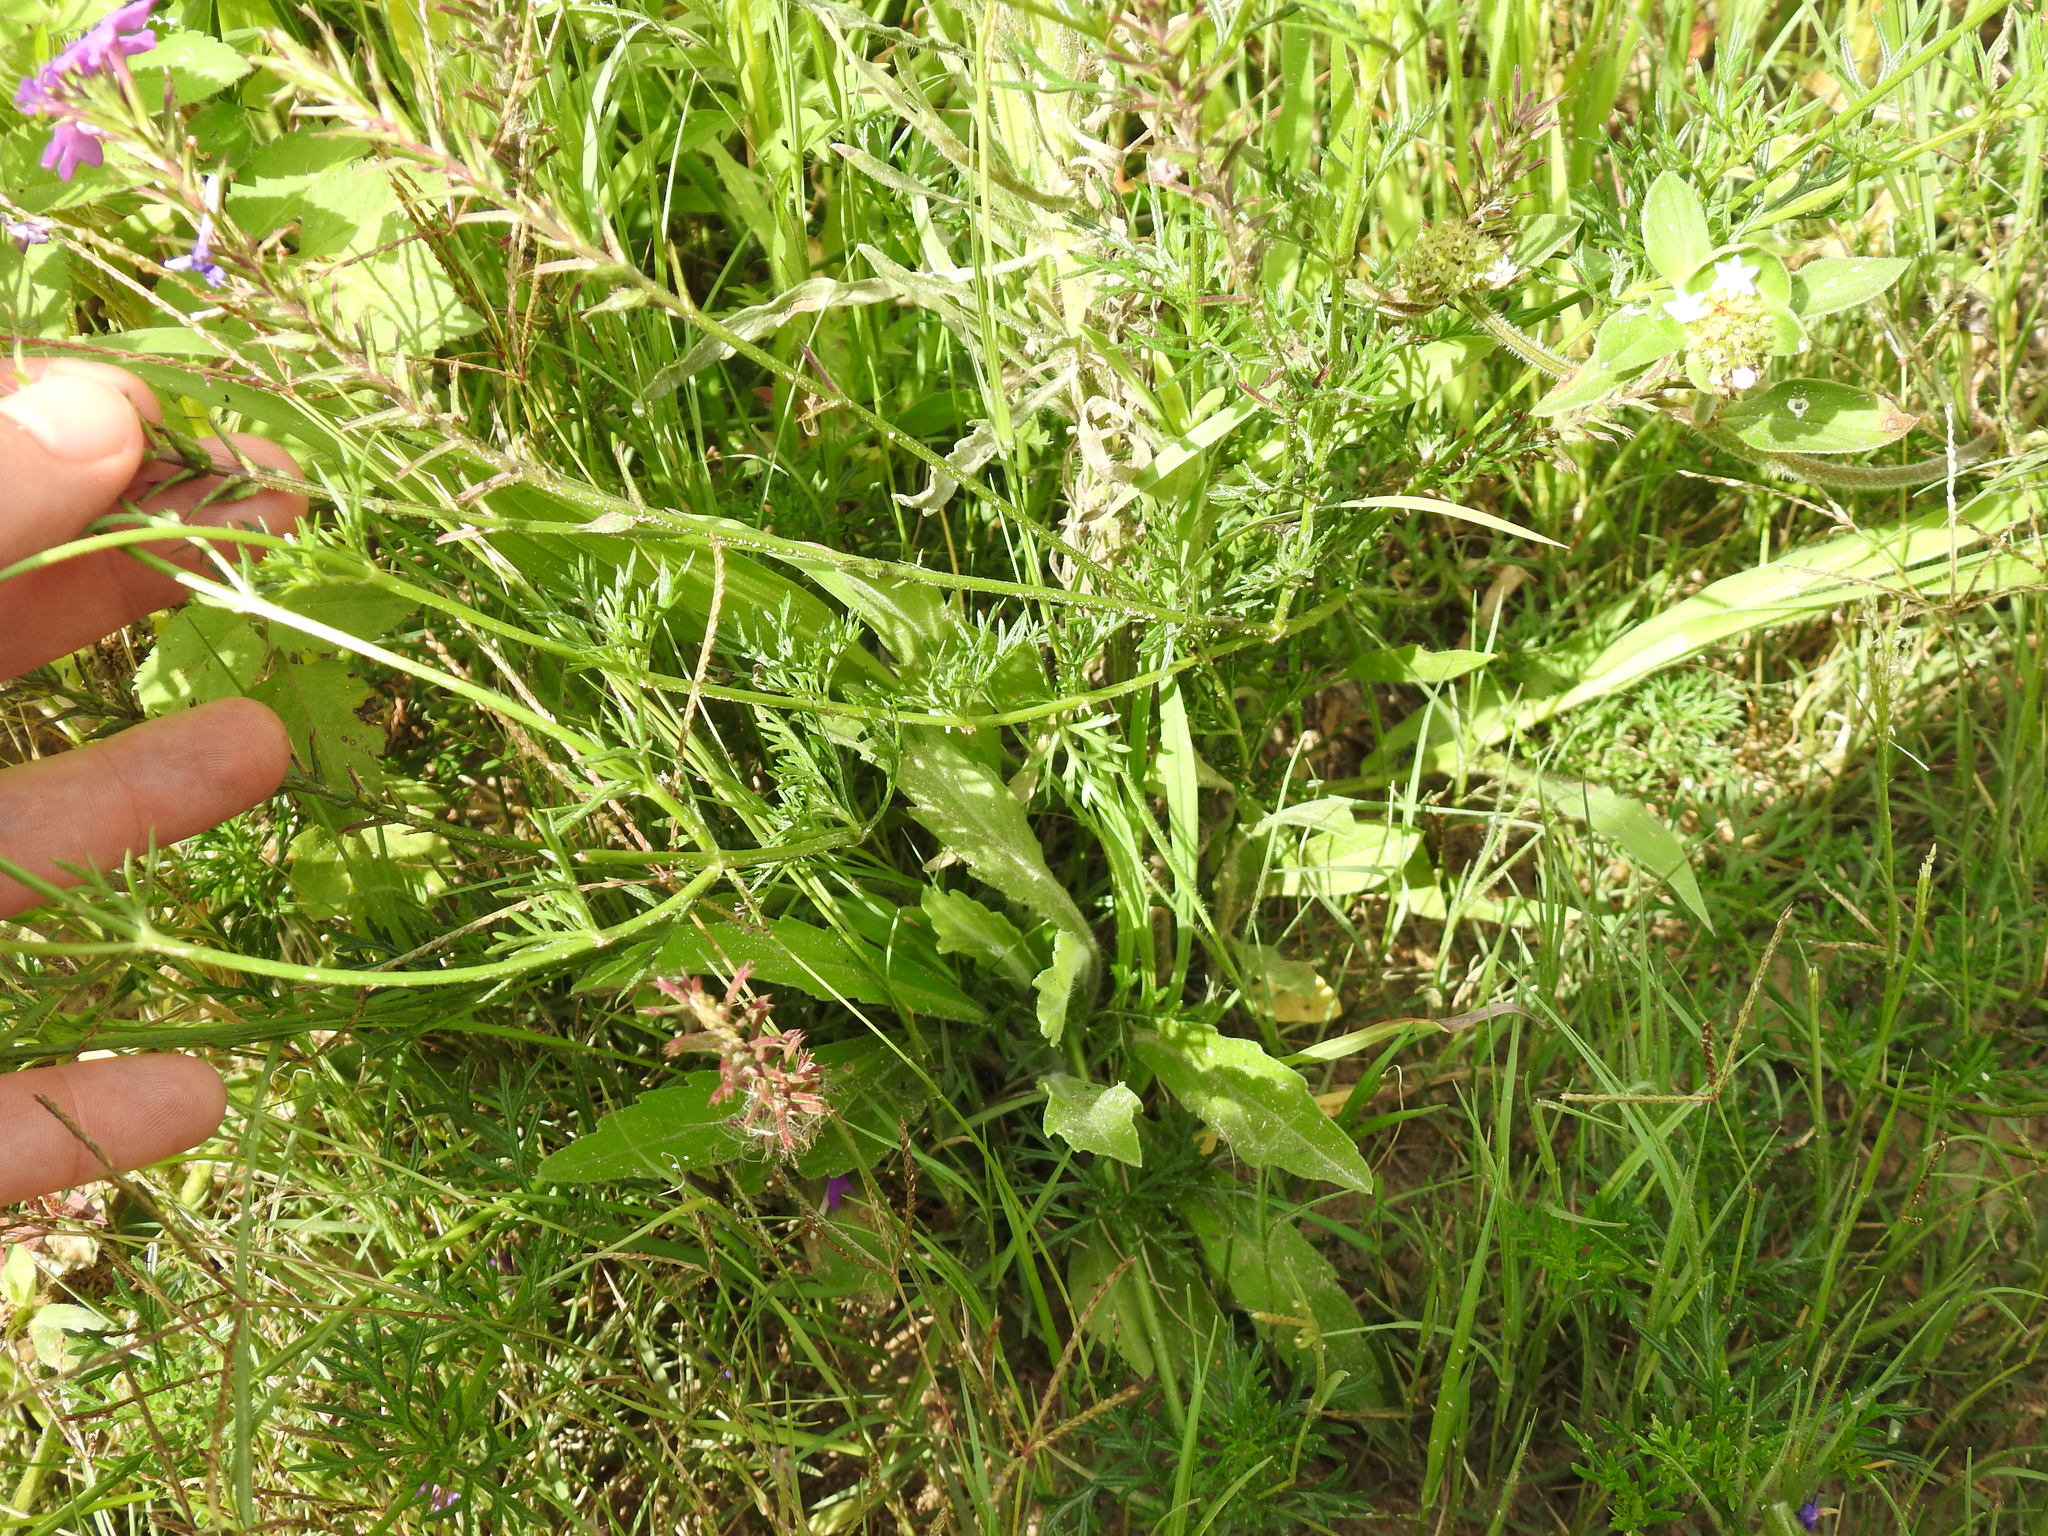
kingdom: Plantae
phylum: Tracheophyta
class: Magnoliopsida
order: Lamiales
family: Verbenaceae
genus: Verbena
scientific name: Verbena aristigera
